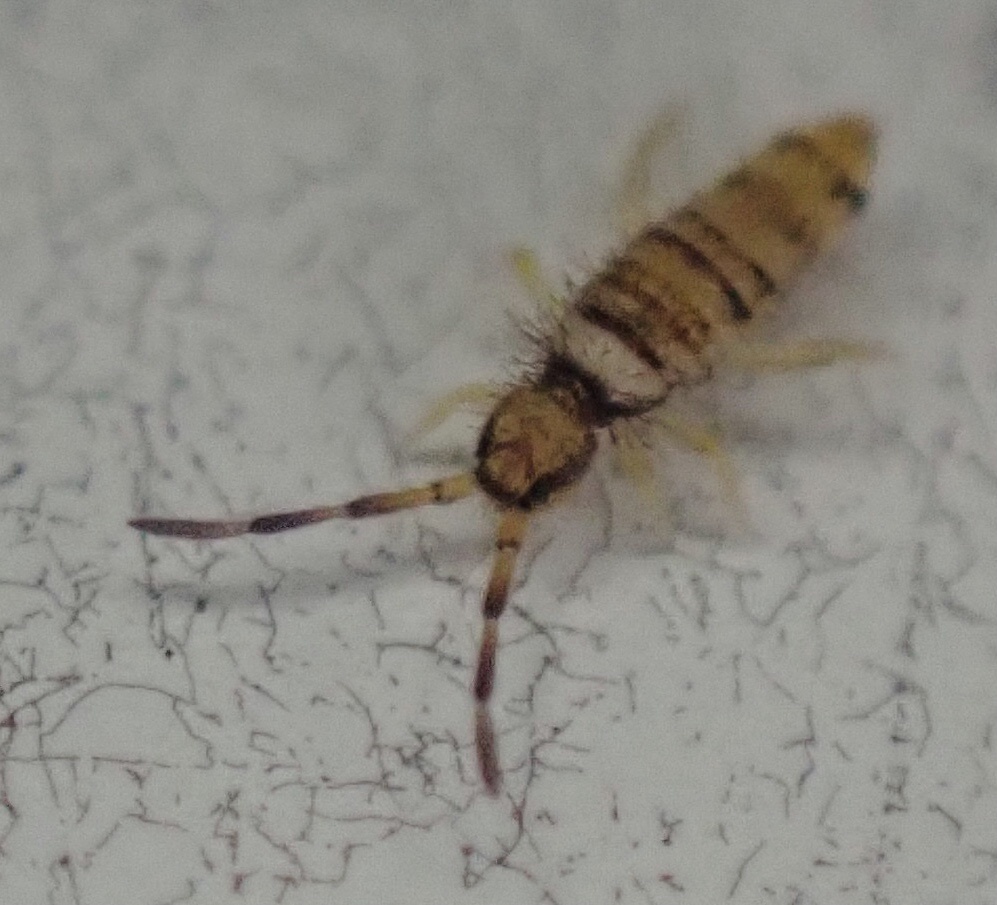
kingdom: Animalia
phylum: Arthropoda
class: Collembola
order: Entomobryomorpha
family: Entomobryidae
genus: Entomobrya
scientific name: Entomobrya atrocincta
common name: Springtail
